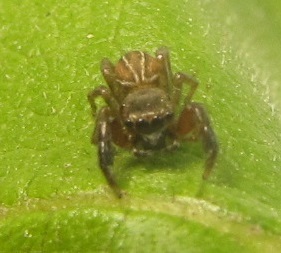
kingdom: Animalia
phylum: Arthropoda
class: Arachnida
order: Araneae
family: Salticidae
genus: Marpissa
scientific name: Marpissa lineata
